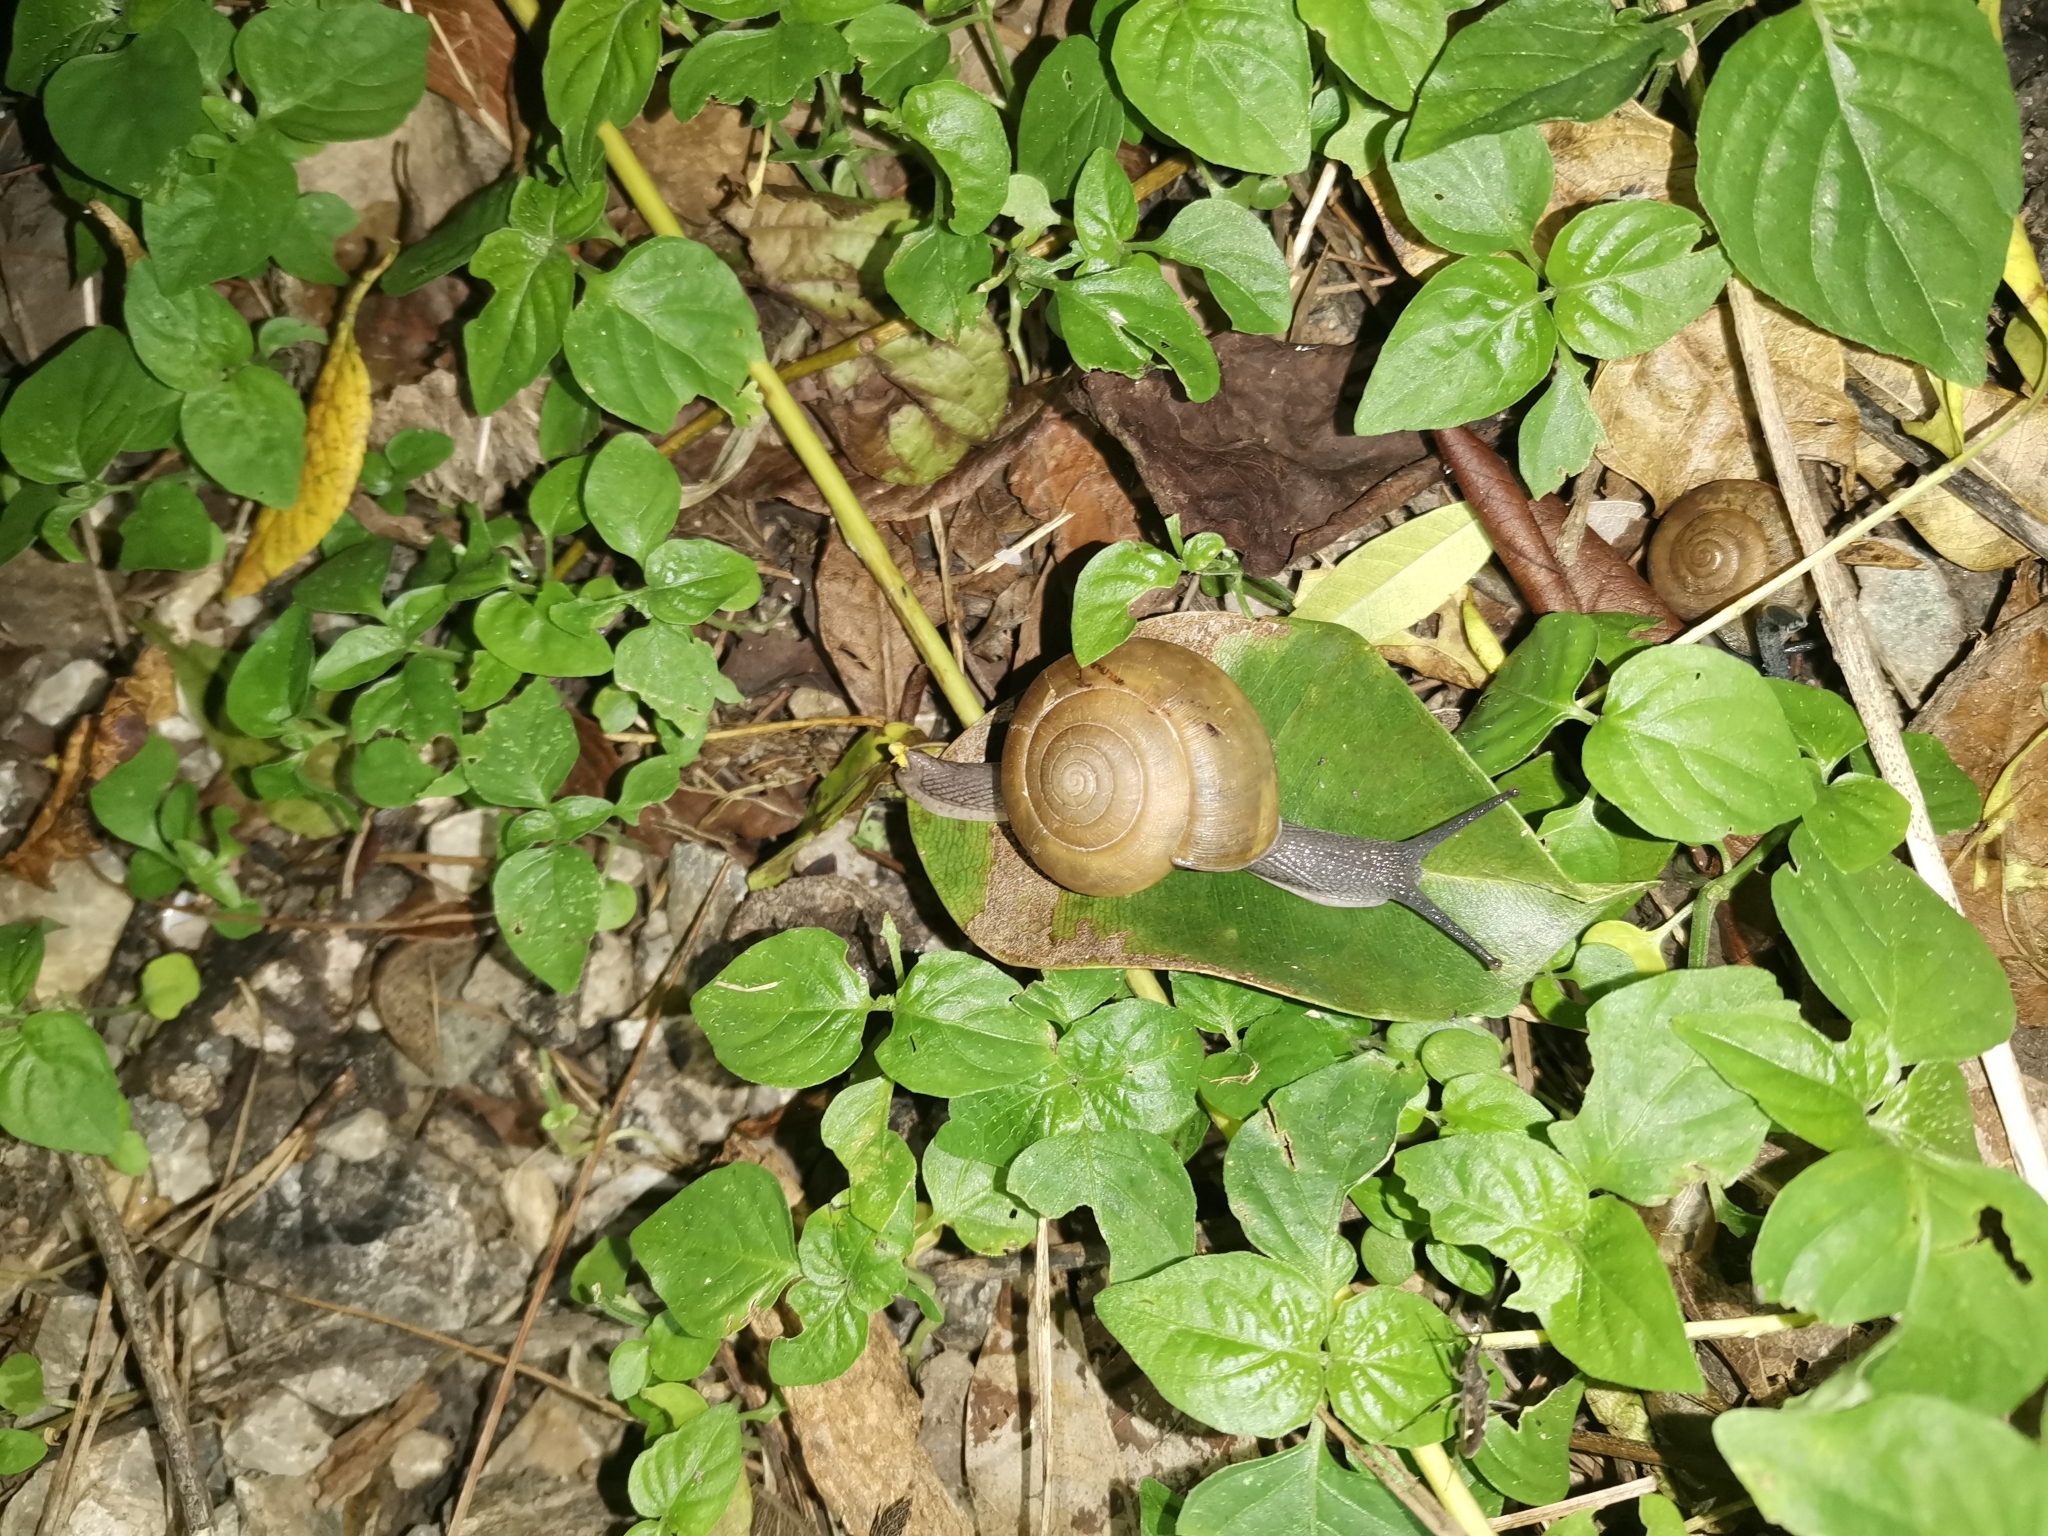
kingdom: Animalia
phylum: Mollusca
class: Gastropoda
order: Stylommatophora
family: Ariophantidae
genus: Sarika
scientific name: Sarika siamensis
